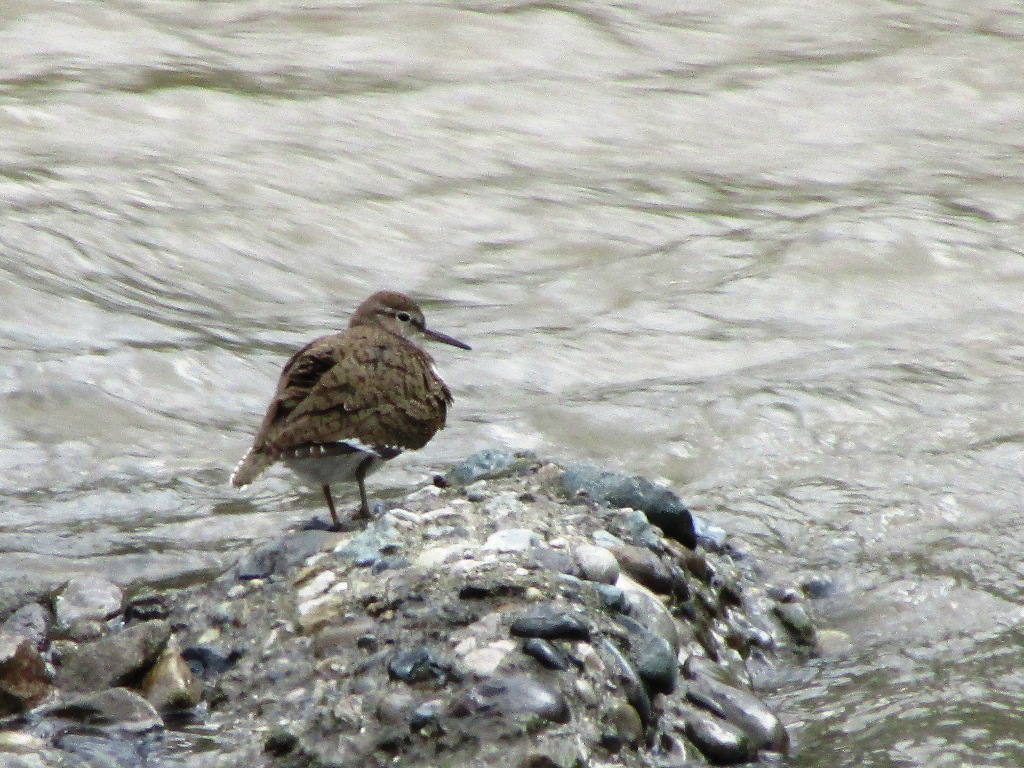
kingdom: Animalia
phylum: Chordata
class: Aves
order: Charadriiformes
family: Scolopacidae
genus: Actitis
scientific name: Actitis hypoleucos
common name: Common sandpiper
